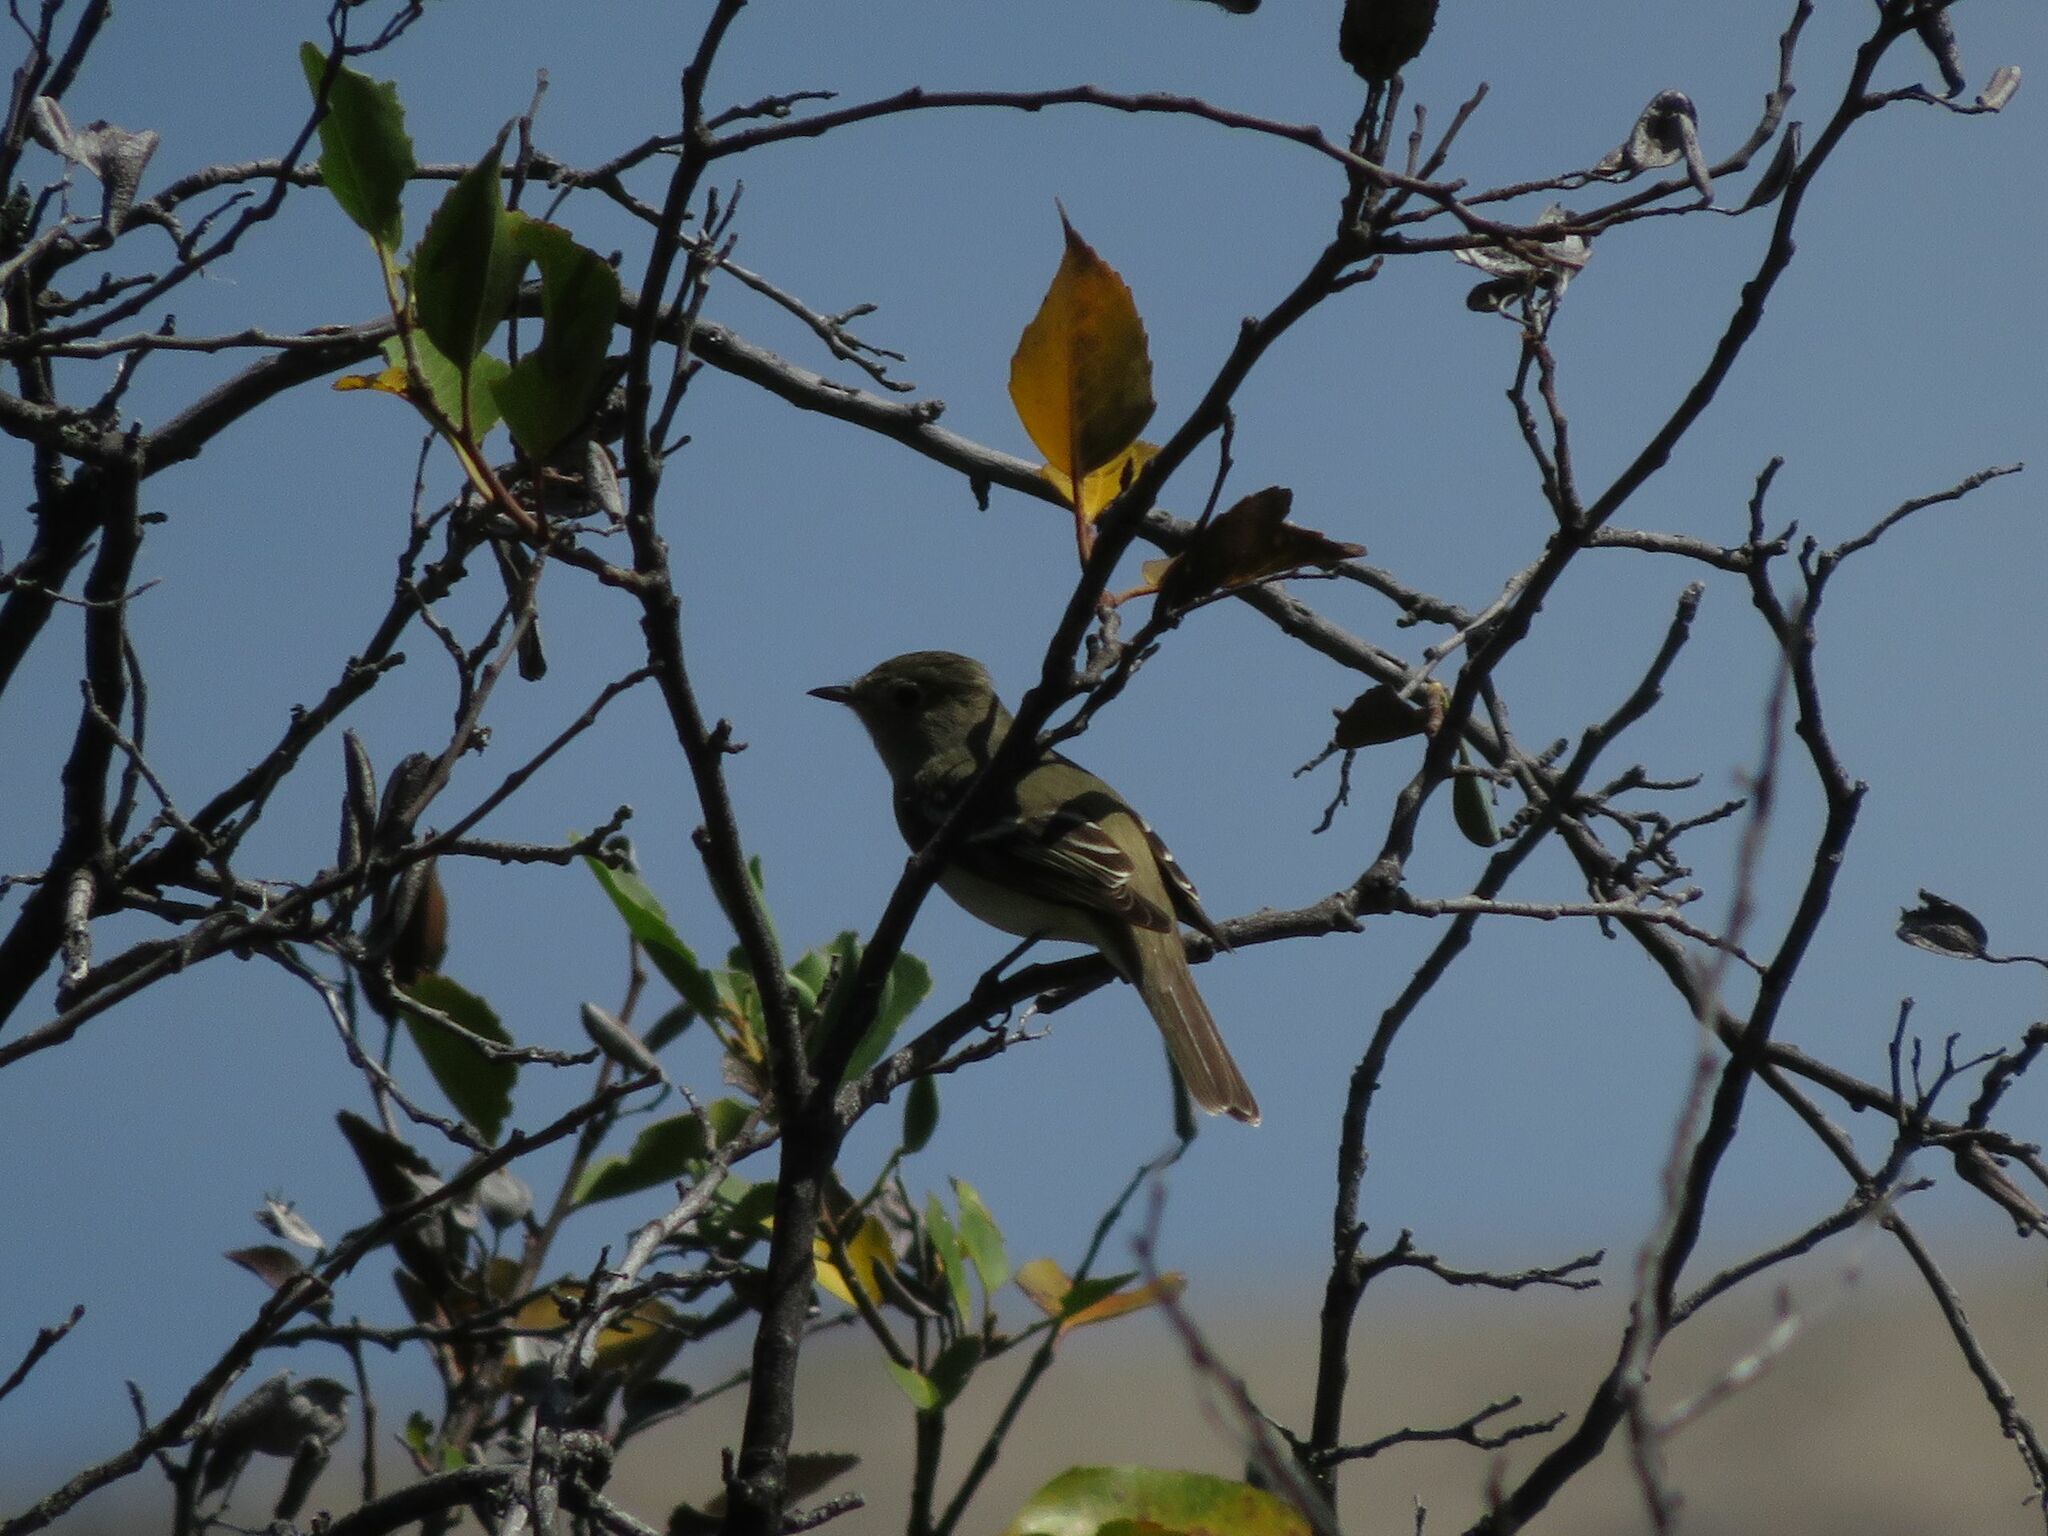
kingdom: Animalia
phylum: Chordata
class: Aves
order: Passeriformes
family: Tyrannidae
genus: Elaenia
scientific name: Elaenia albiceps
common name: White-crested elaenia
